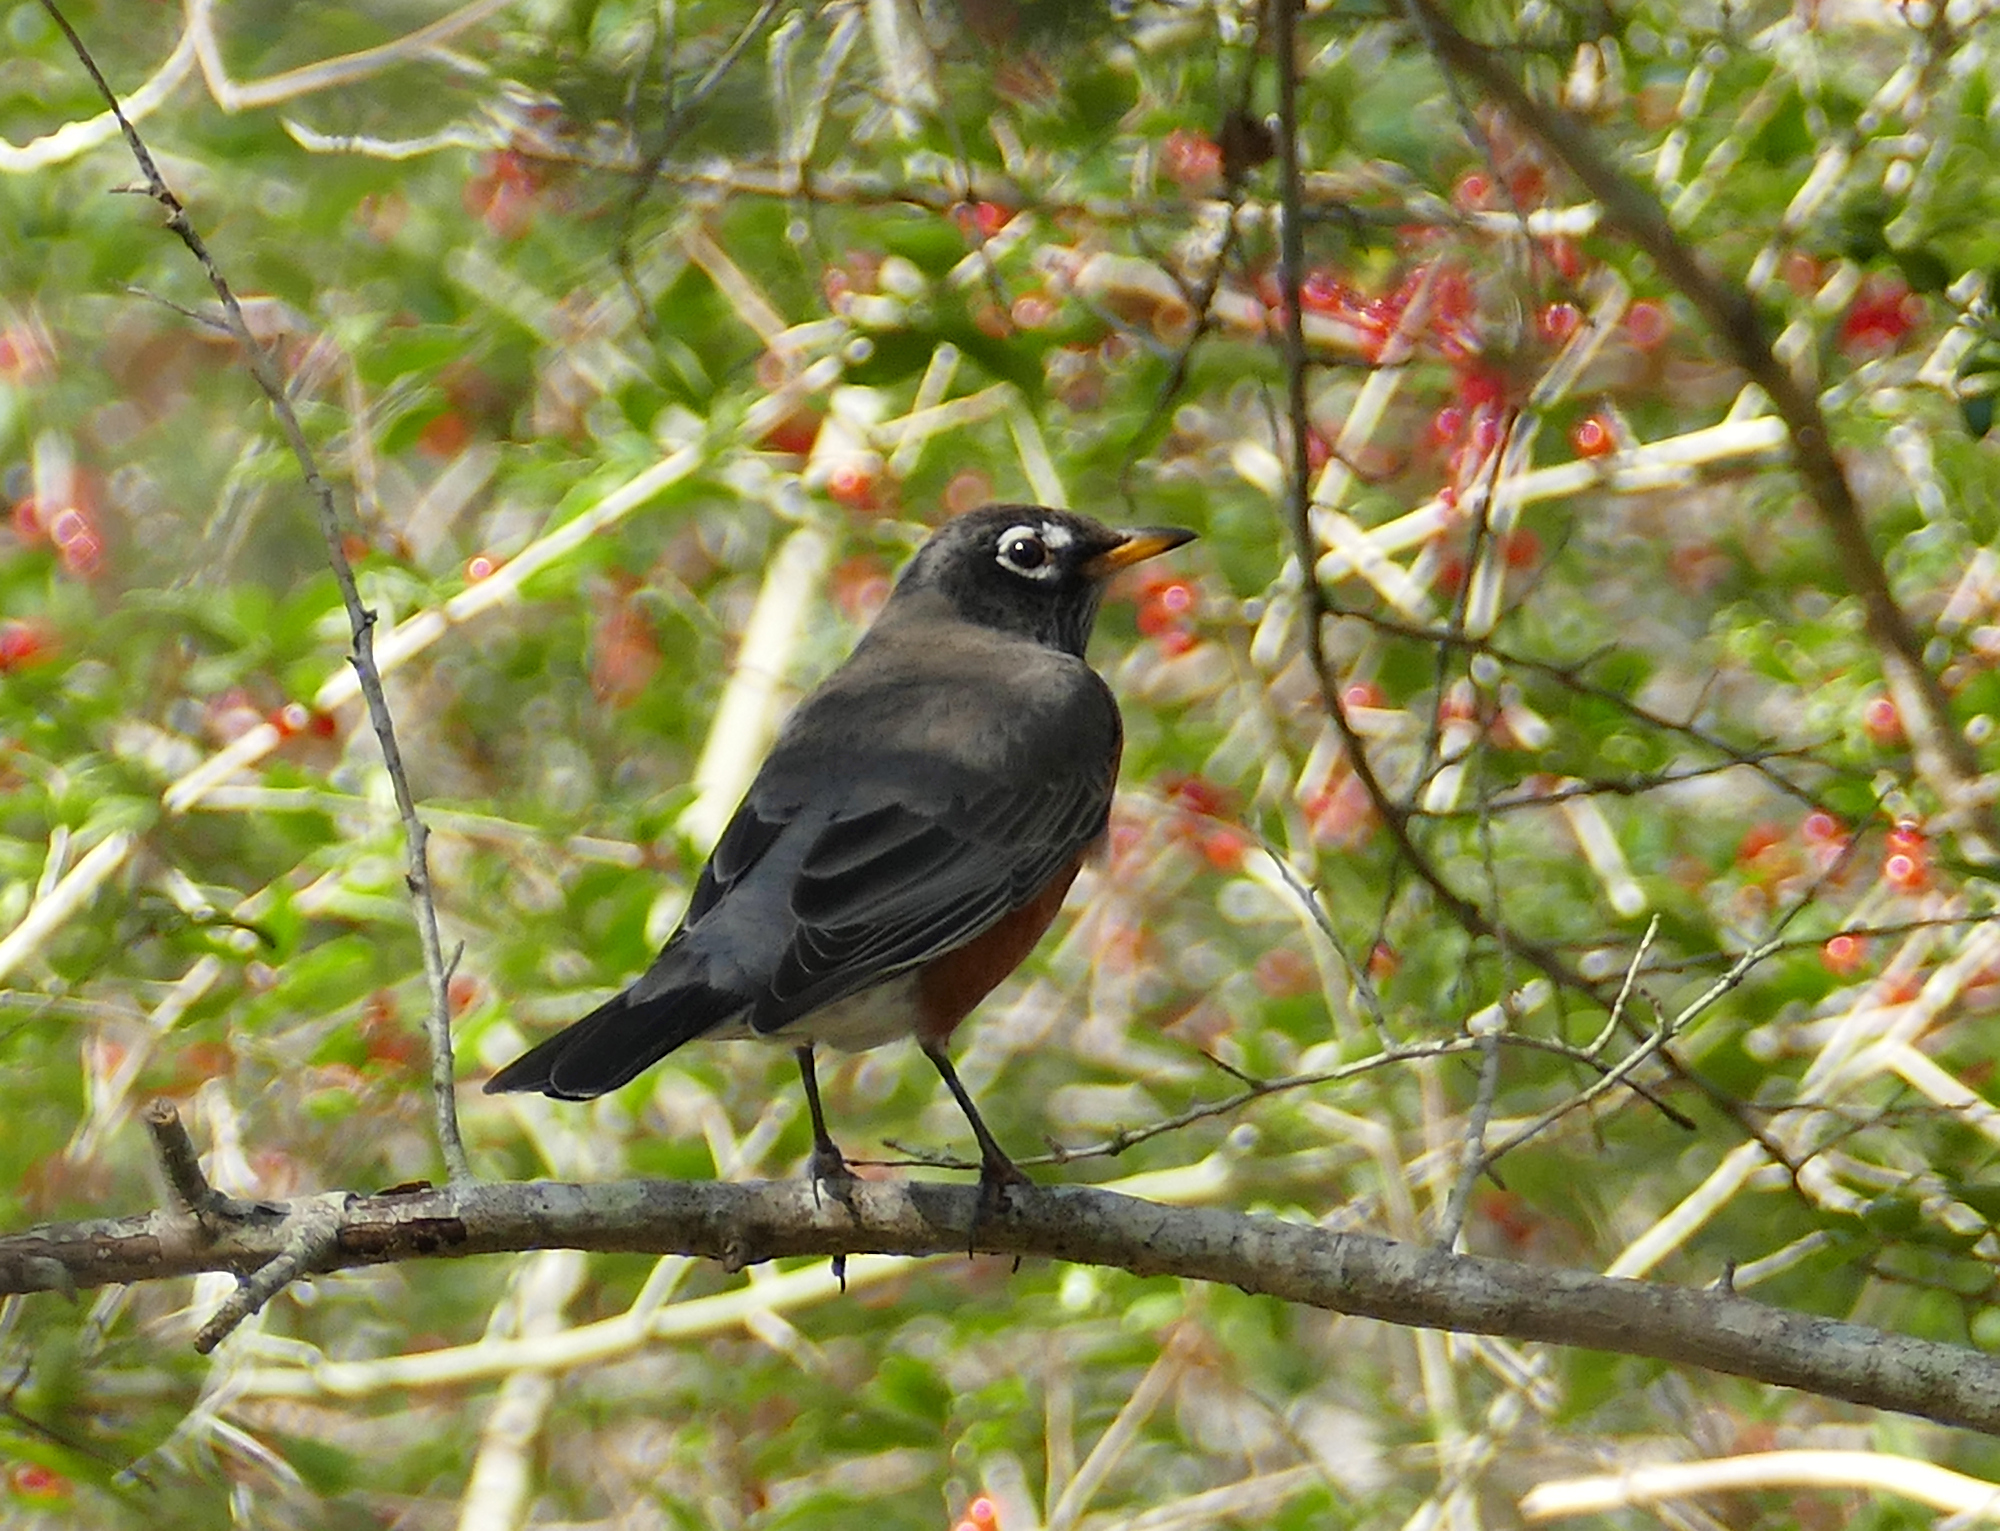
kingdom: Animalia
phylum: Chordata
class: Aves
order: Passeriformes
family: Turdidae
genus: Turdus
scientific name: Turdus migratorius
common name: American robin
